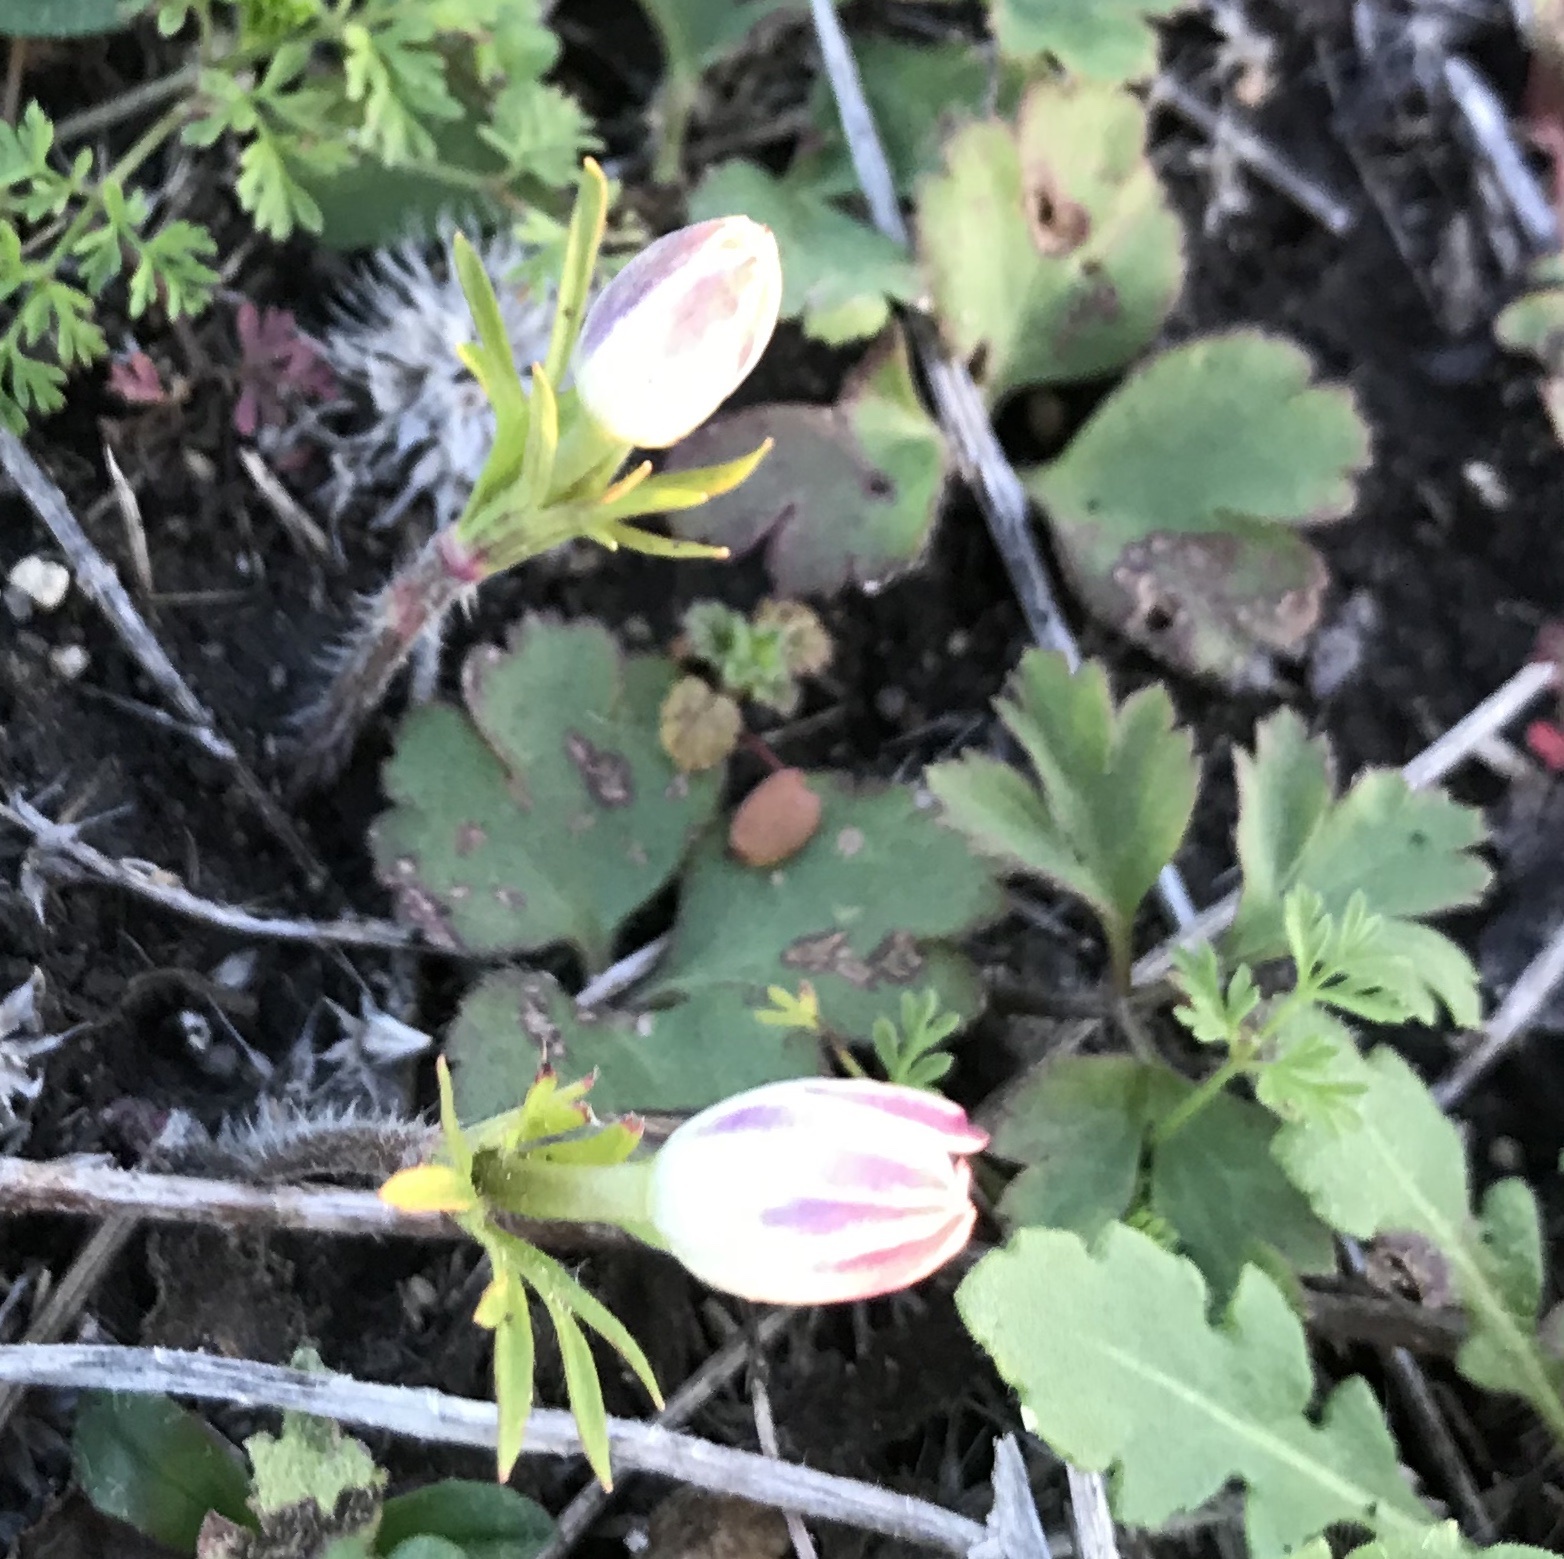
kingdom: Plantae
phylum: Tracheophyta
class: Magnoliopsida
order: Ranunculales
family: Ranunculaceae
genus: Anemone
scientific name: Anemone berlandieri
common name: Ten-petal anemone
